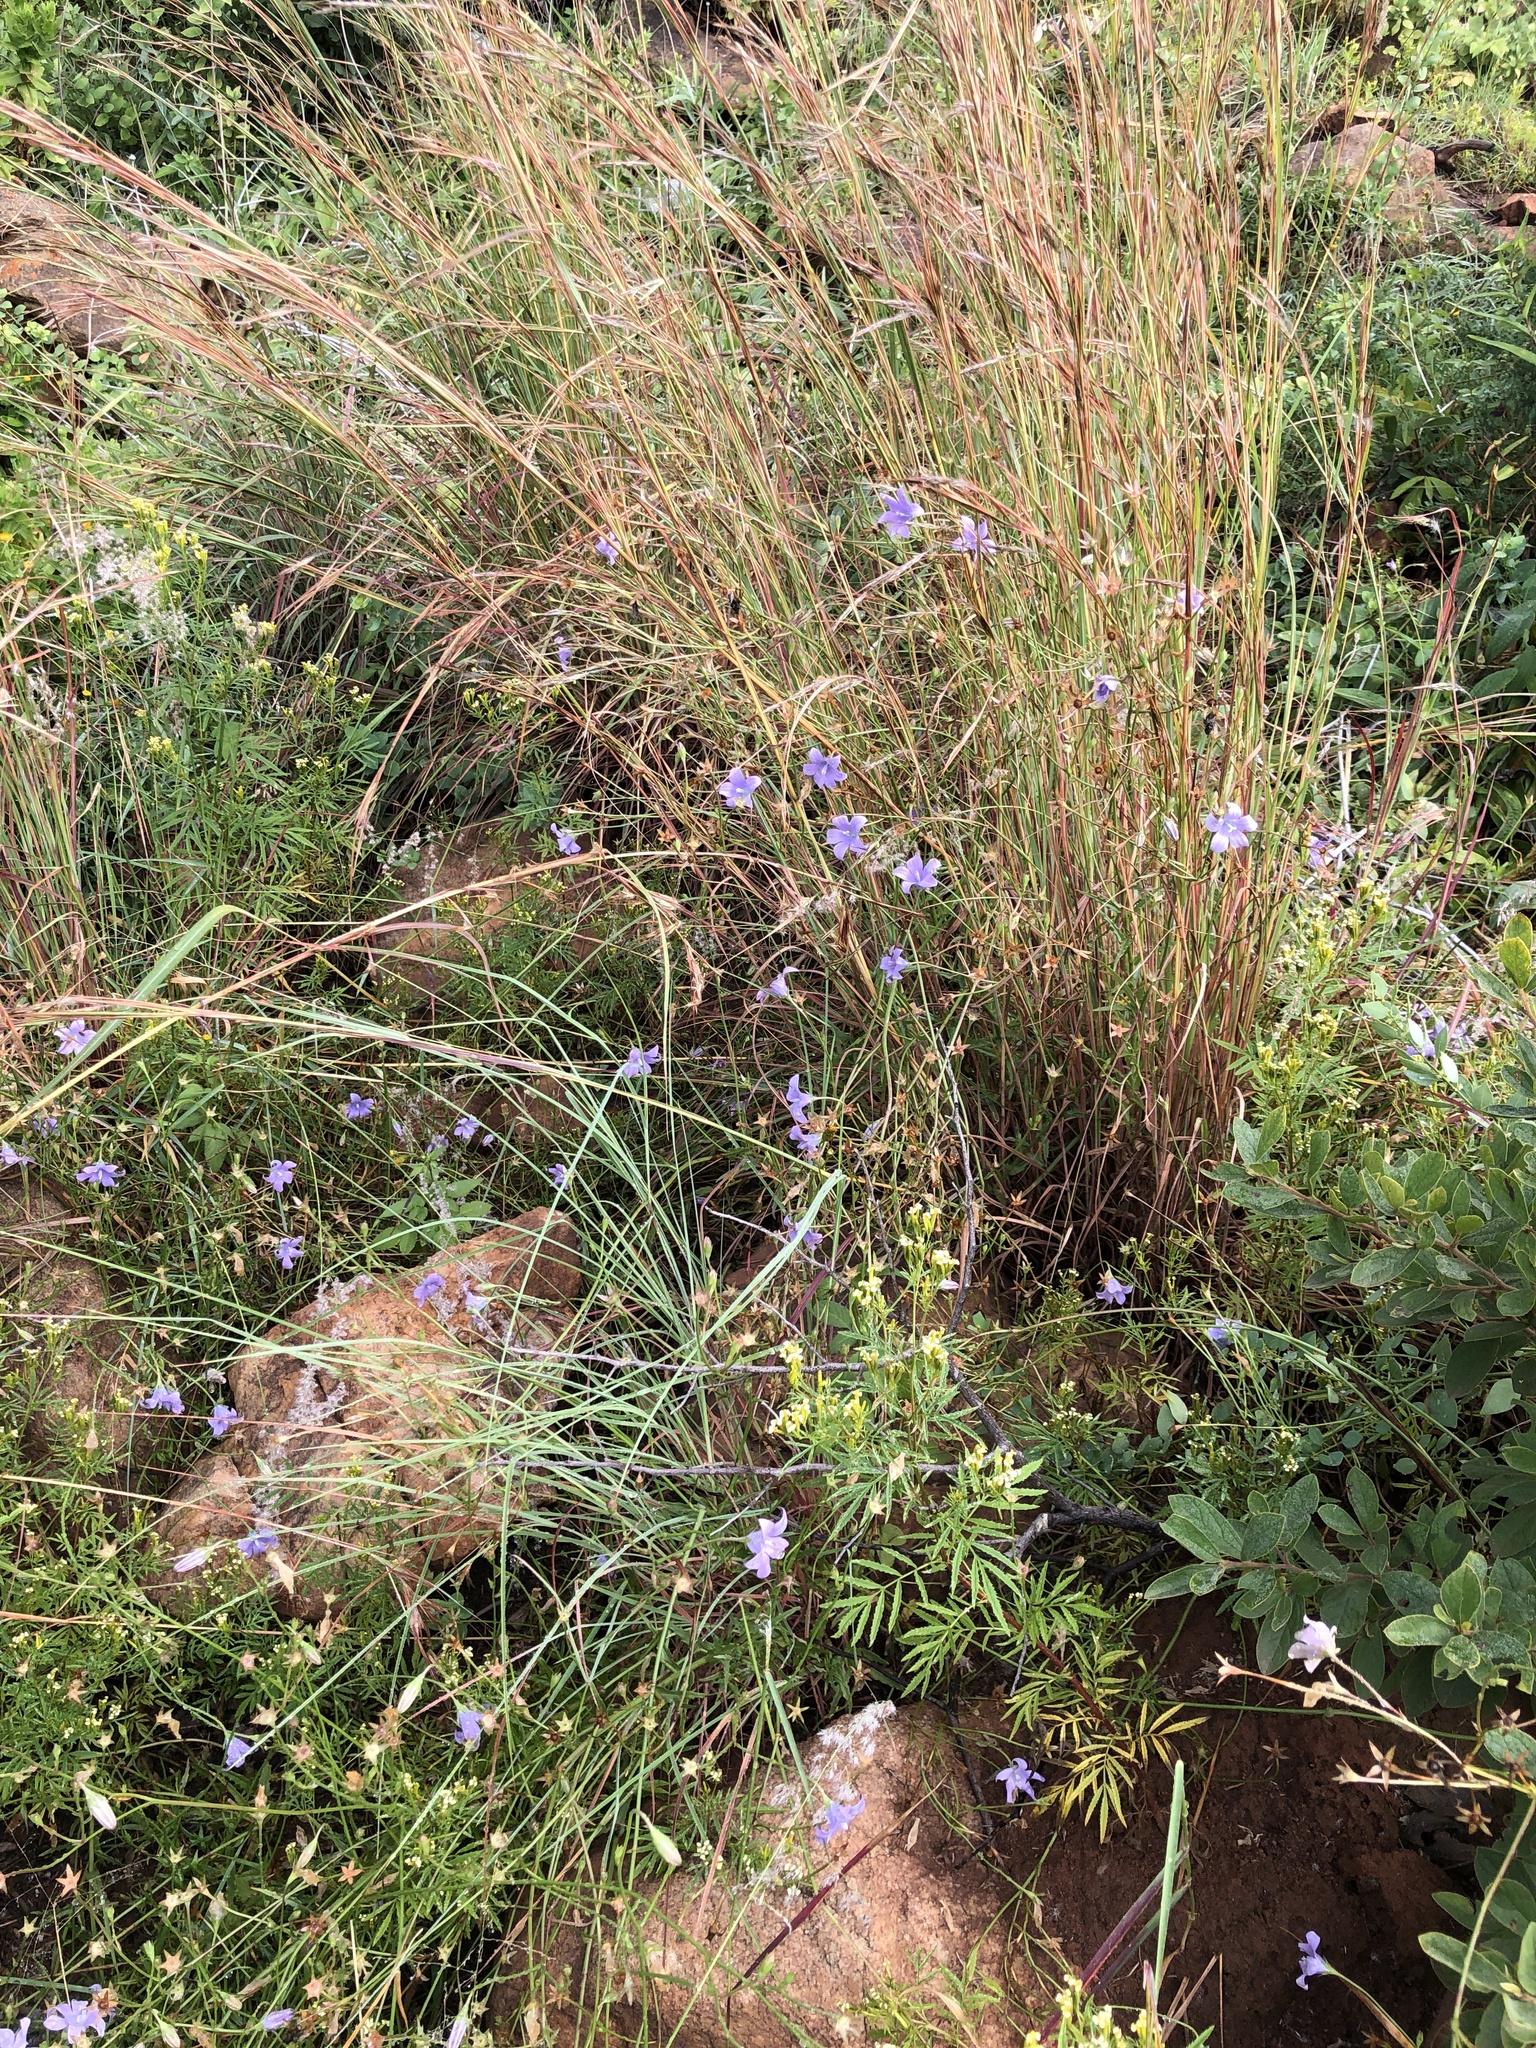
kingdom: Plantae
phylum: Tracheophyta
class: Magnoliopsida
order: Asterales
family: Campanulaceae
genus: Wahlenbergia
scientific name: Wahlenbergia undulata
